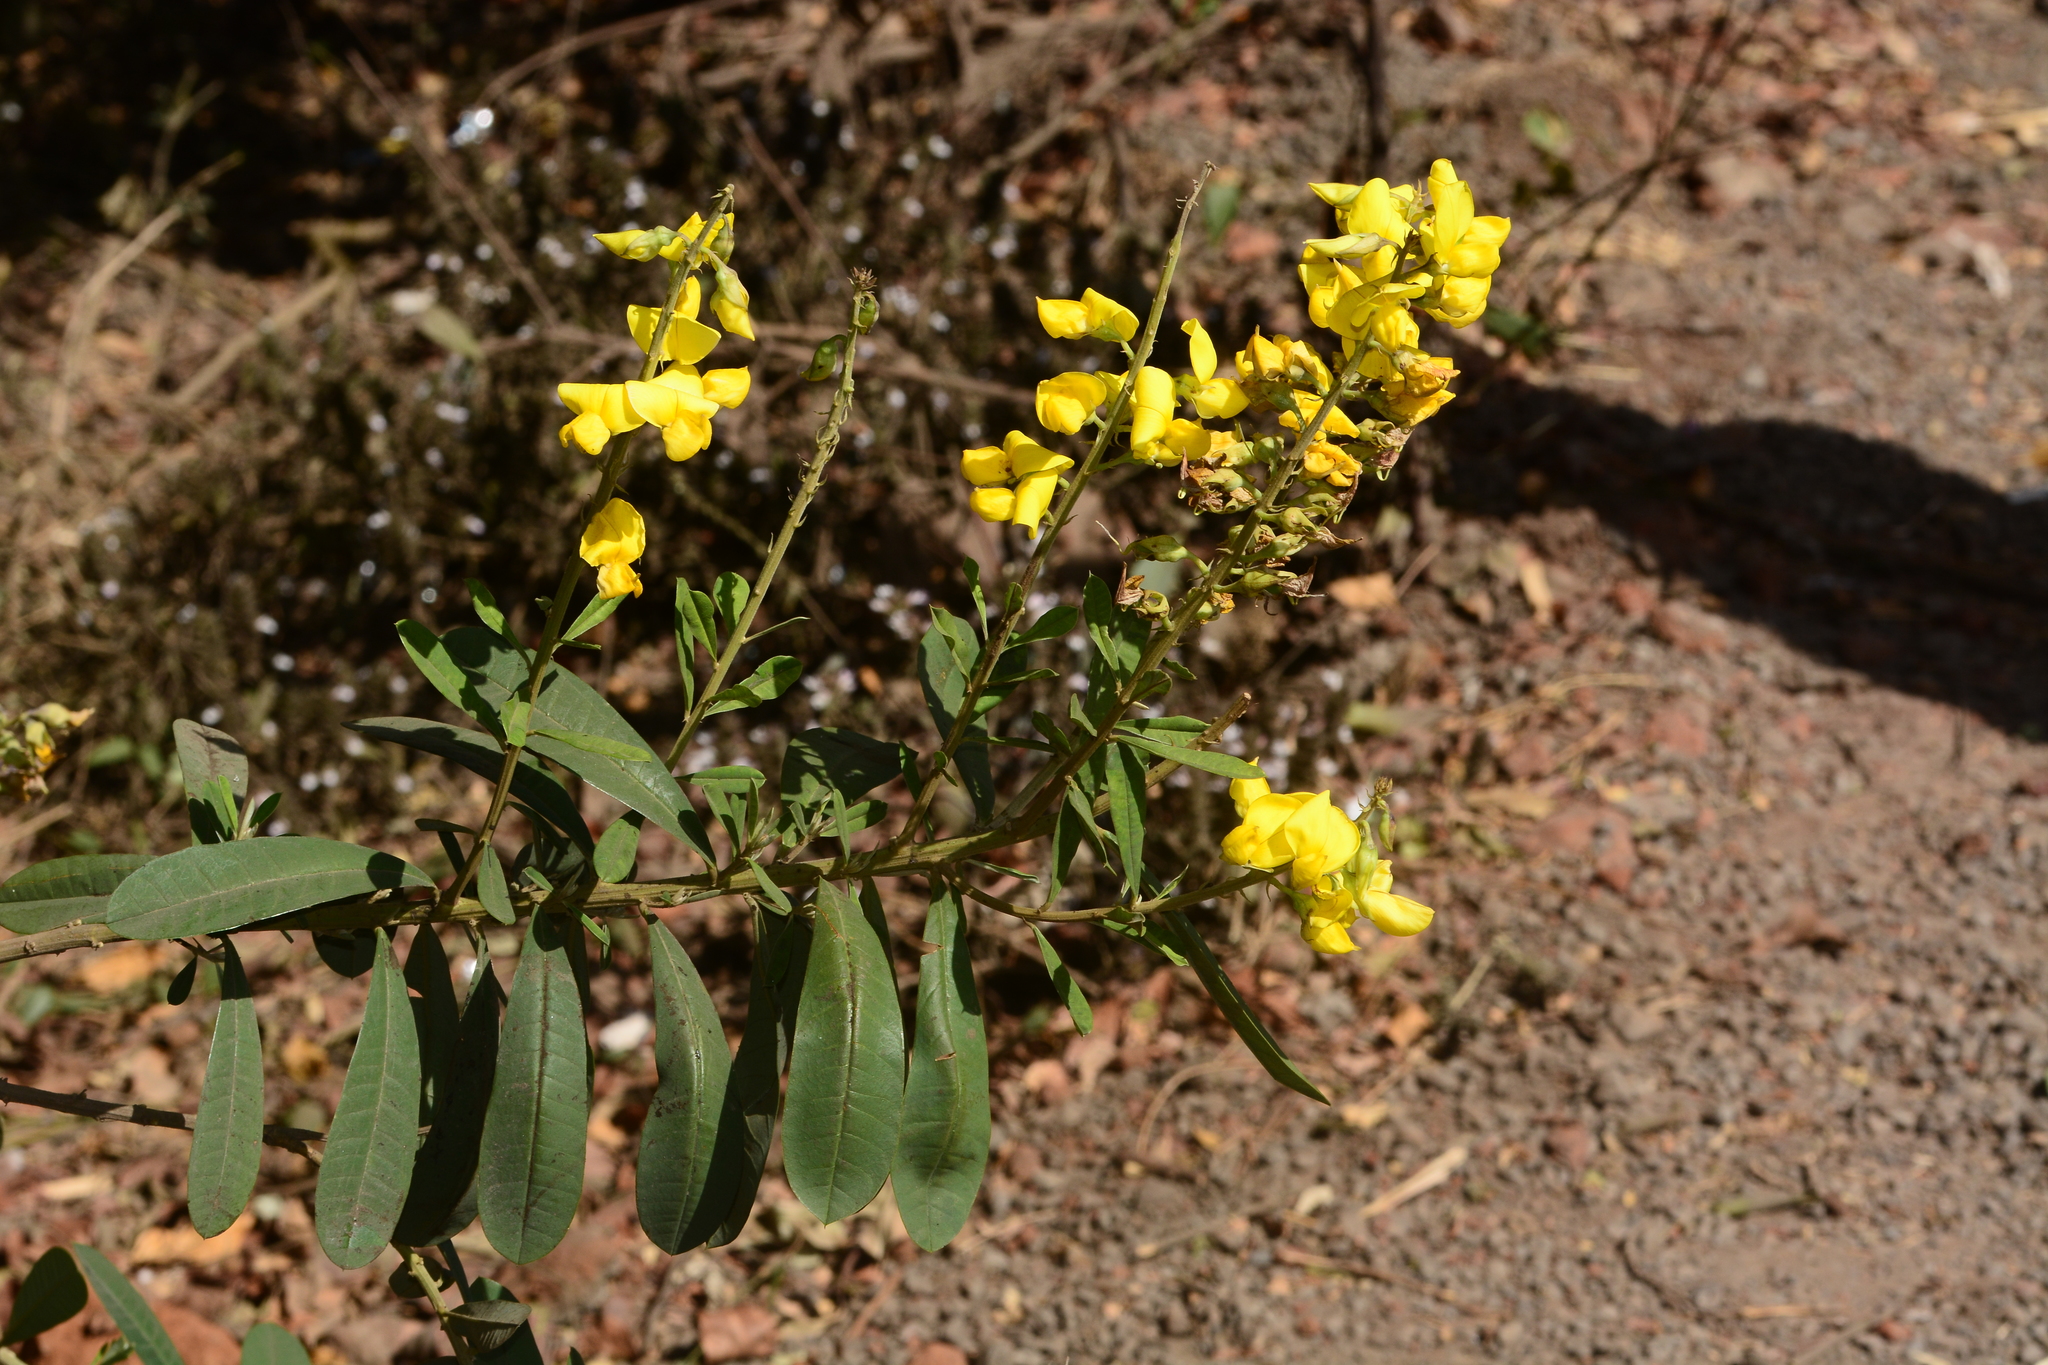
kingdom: Plantae
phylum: Tracheophyta
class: Magnoliopsida
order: Fabales
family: Fabaceae
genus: Crotalaria
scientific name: Crotalaria retusa
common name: Rattleweed
